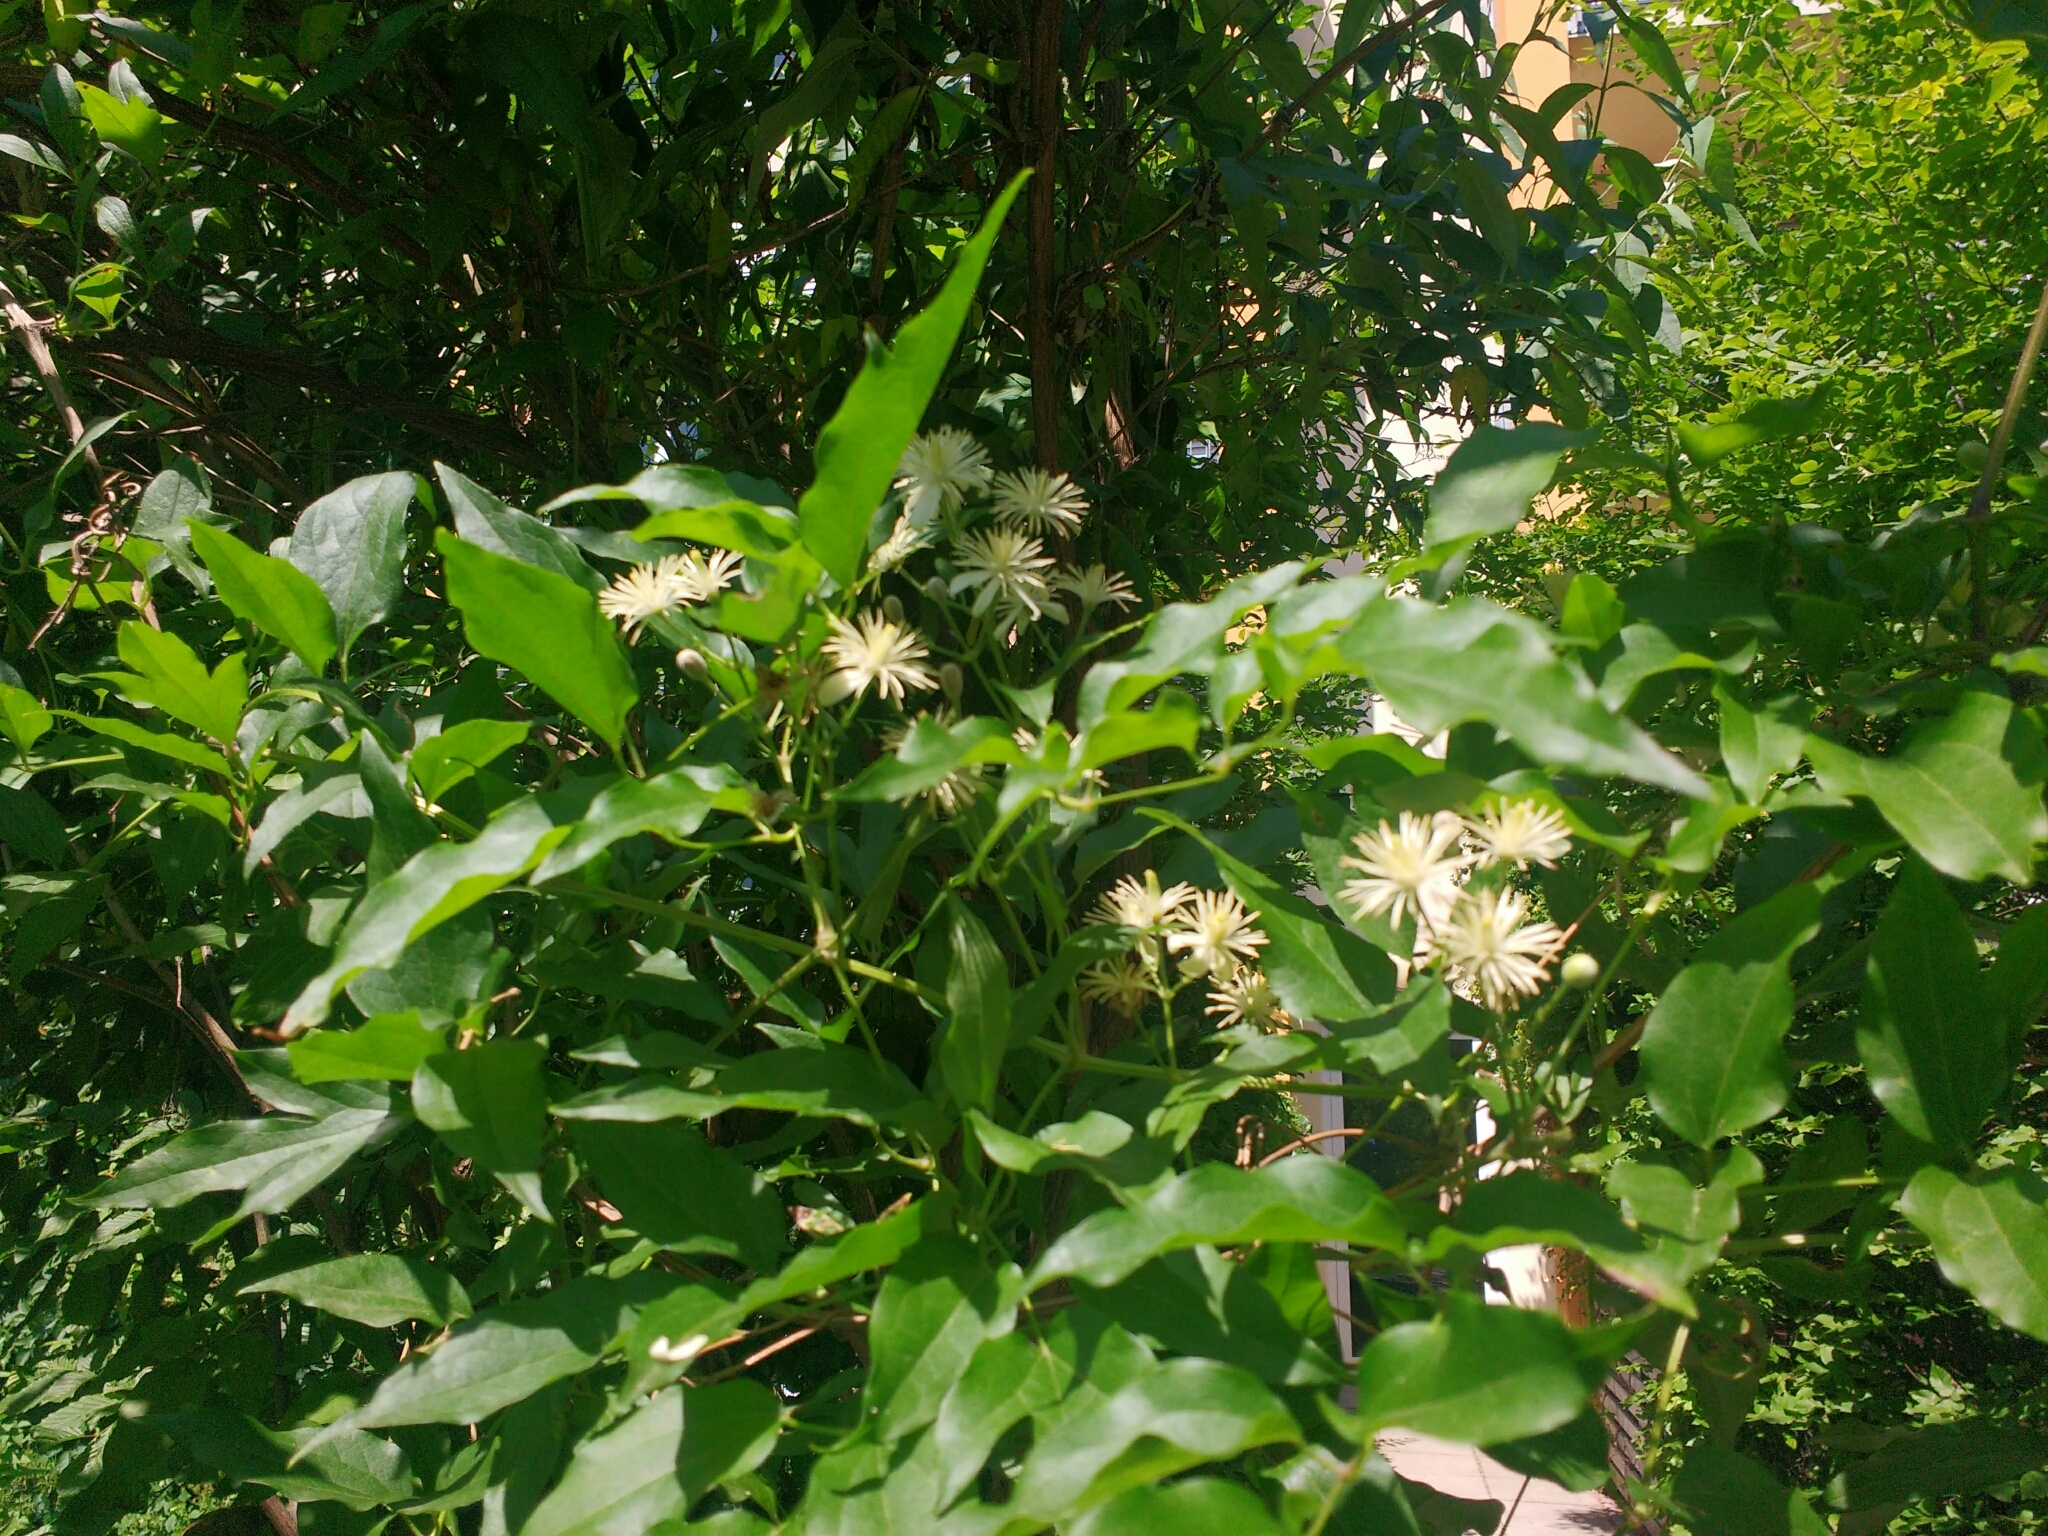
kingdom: Plantae
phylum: Tracheophyta
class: Magnoliopsida
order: Ranunculales
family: Ranunculaceae
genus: Clematis
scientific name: Clematis vitalba
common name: Evergreen clematis
